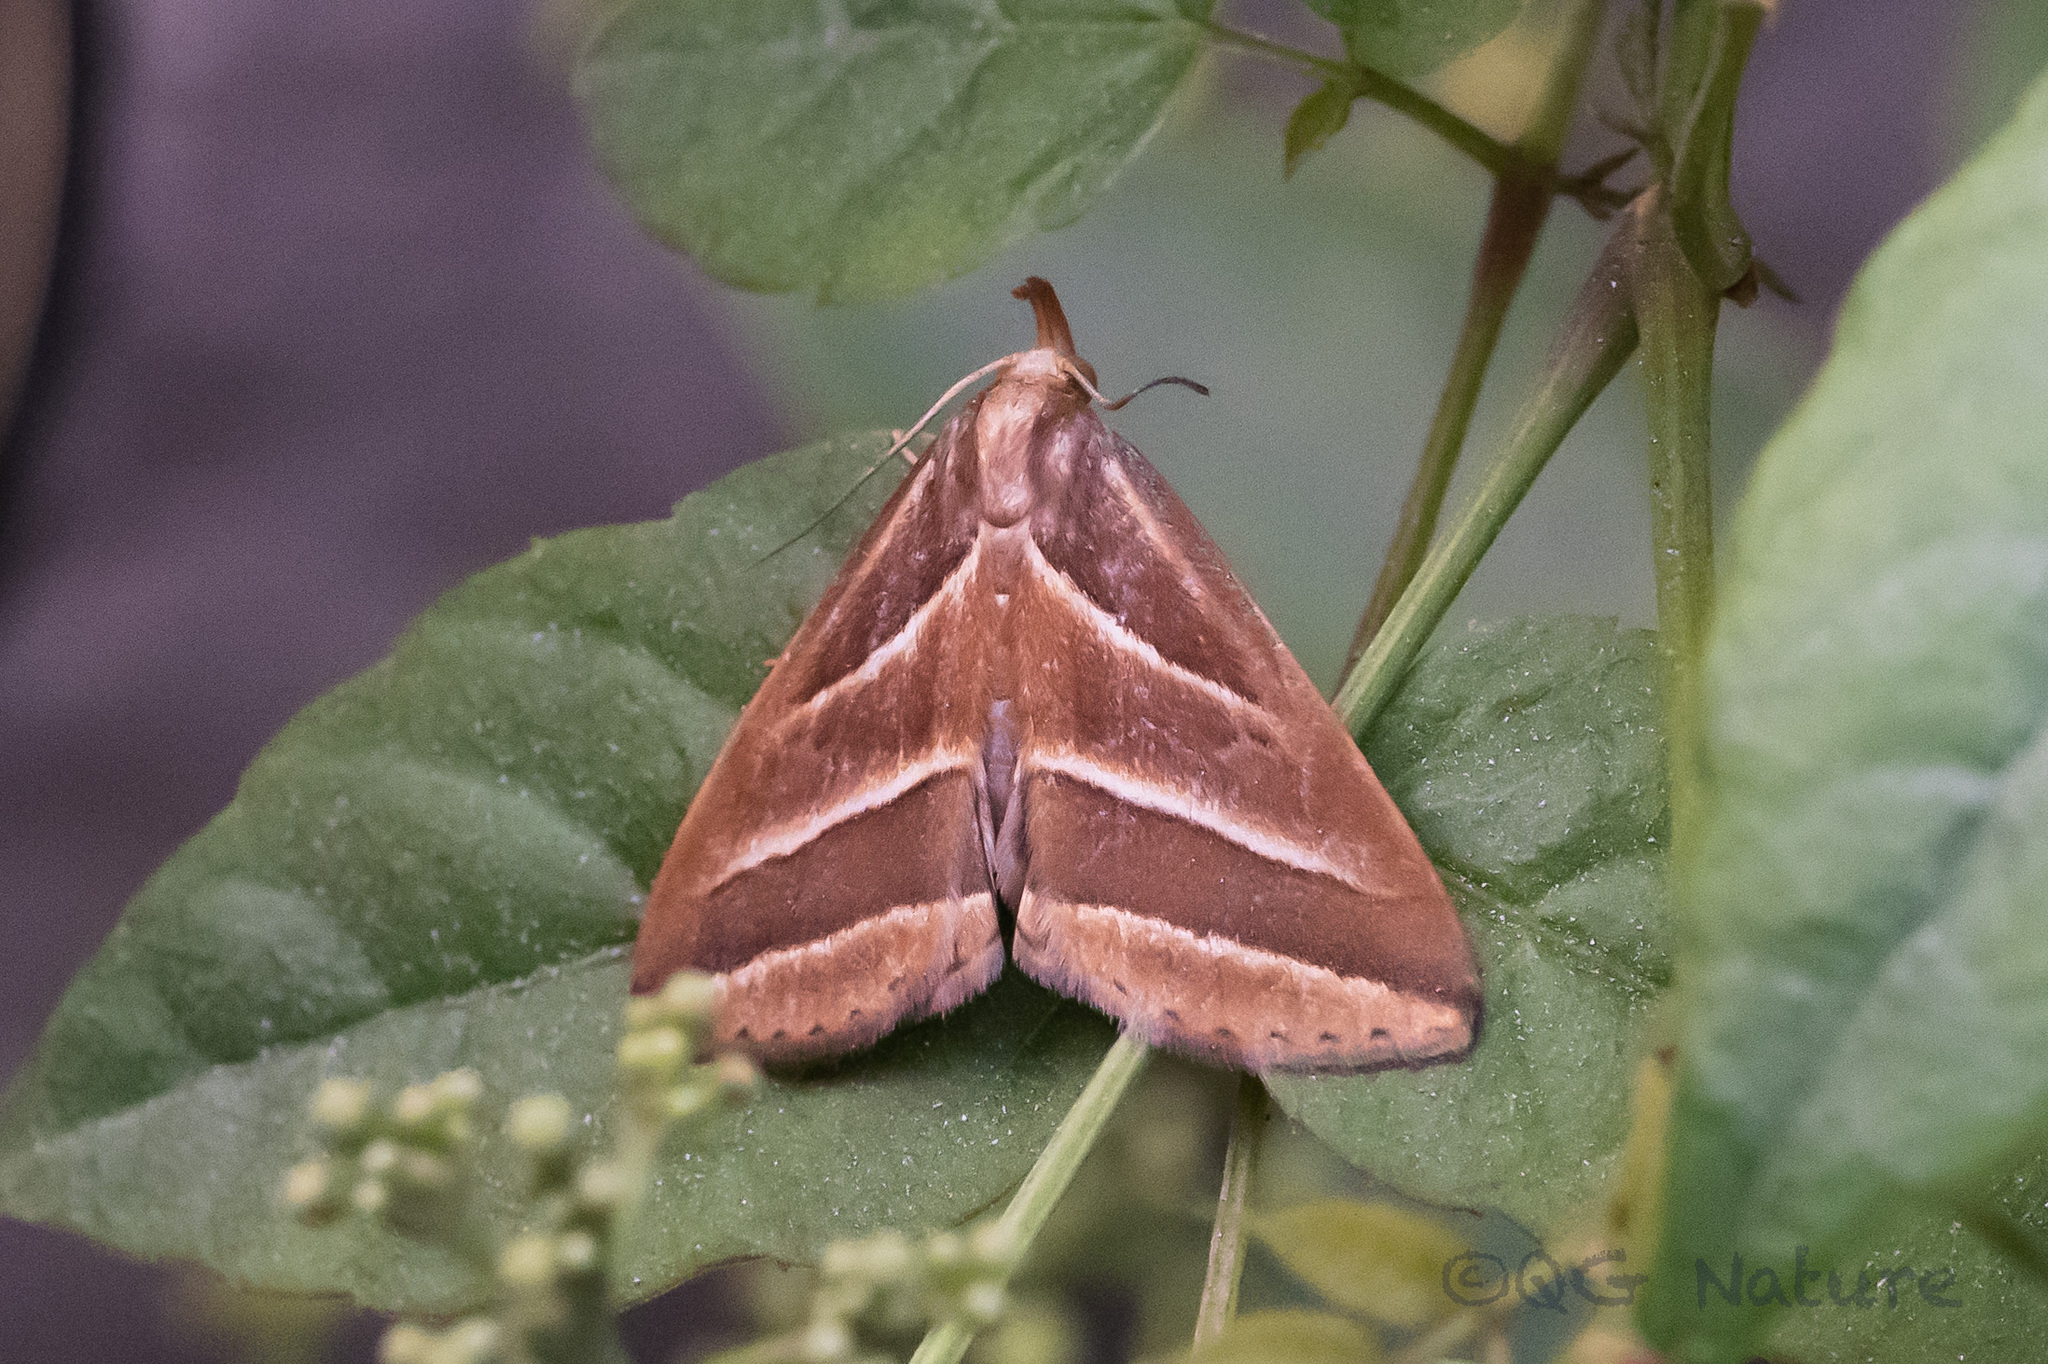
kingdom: Animalia
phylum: Arthropoda
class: Insecta
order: Lepidoptera
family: Erebidae
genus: Bertula
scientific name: Bertula
